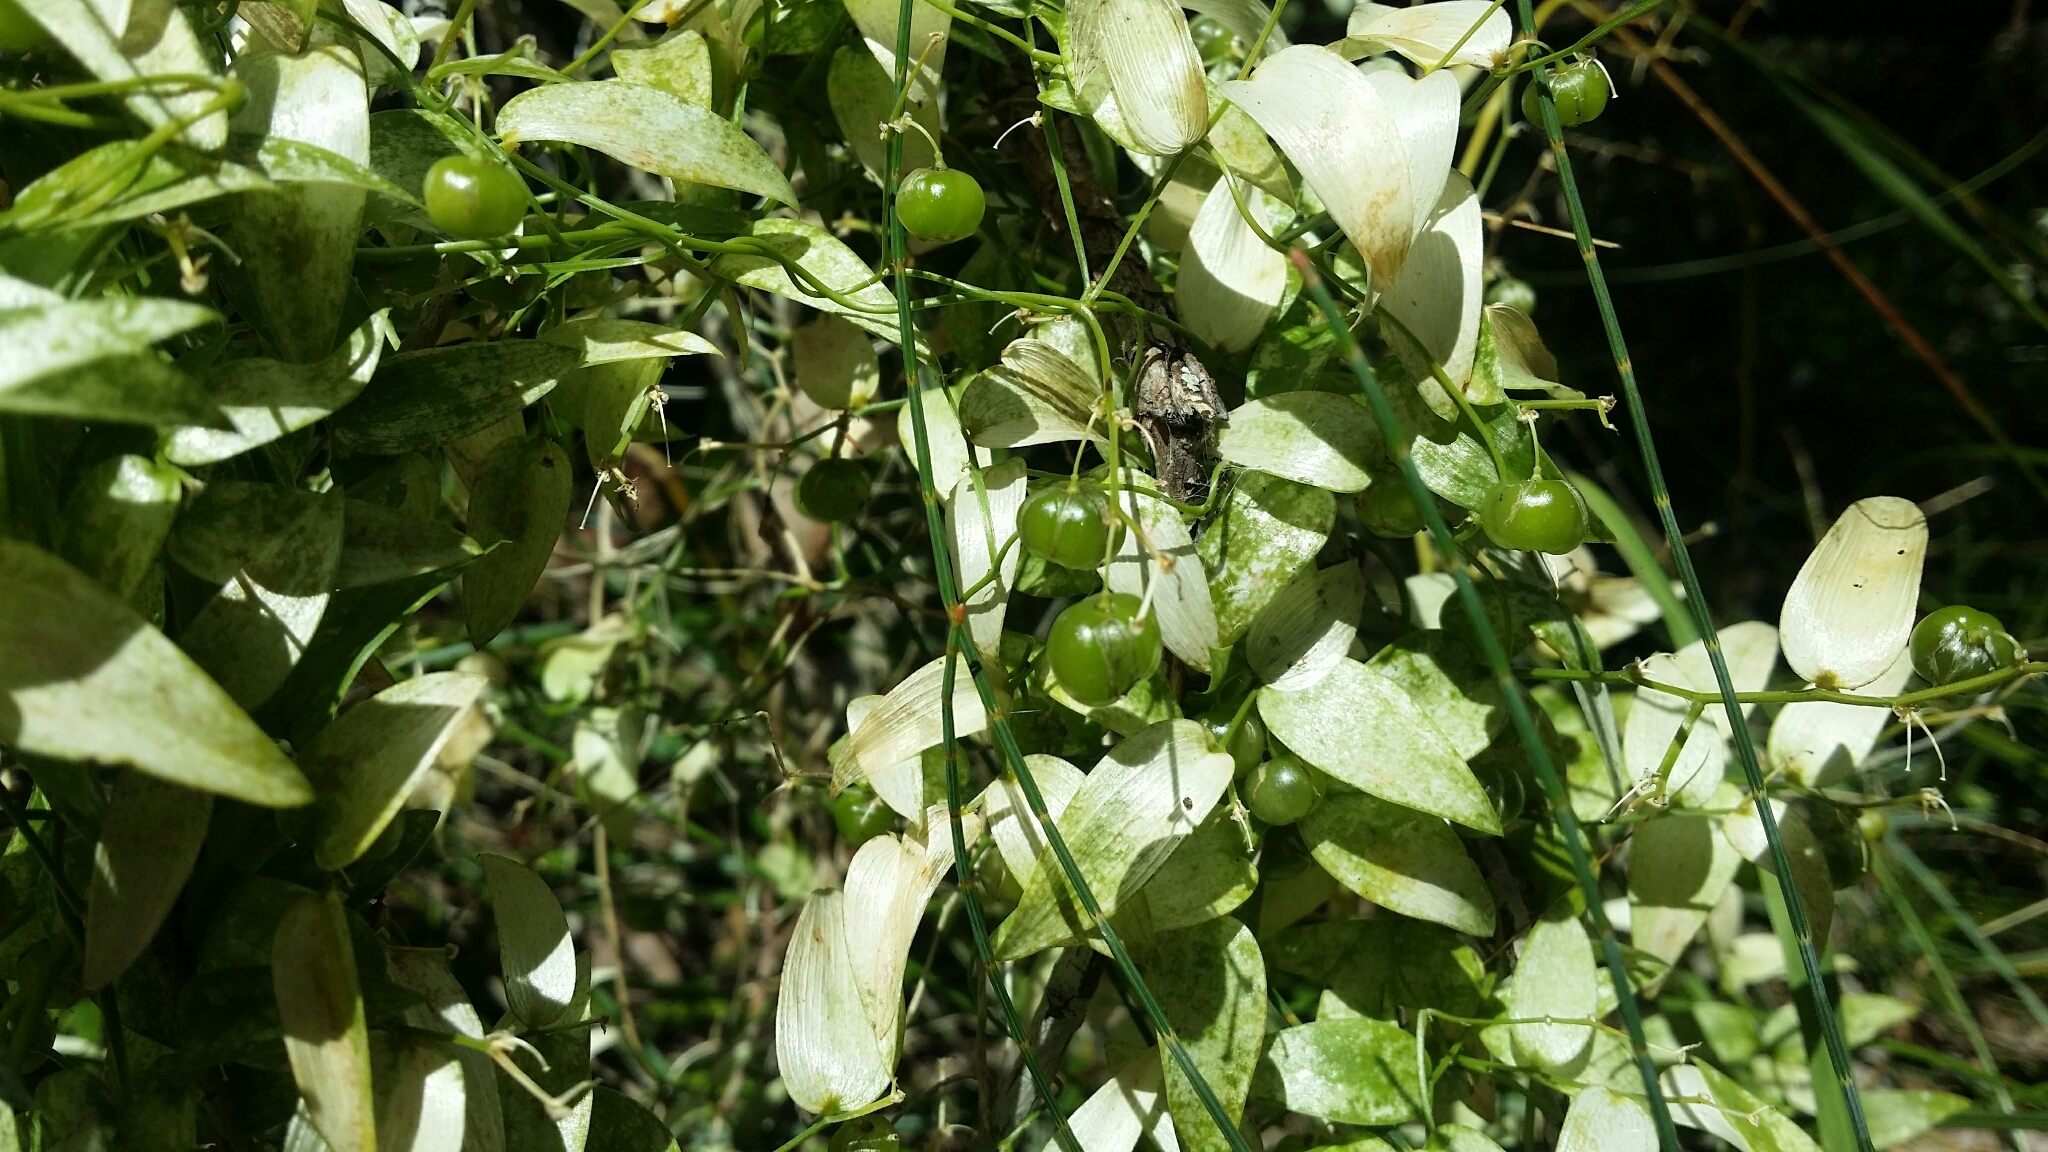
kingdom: Plantae
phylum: Tracheophyta
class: Liliopsida
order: Asparagales
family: Asparagaceae
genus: Asparagus
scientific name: Asparagus asparagoides
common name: African asparagus fern
